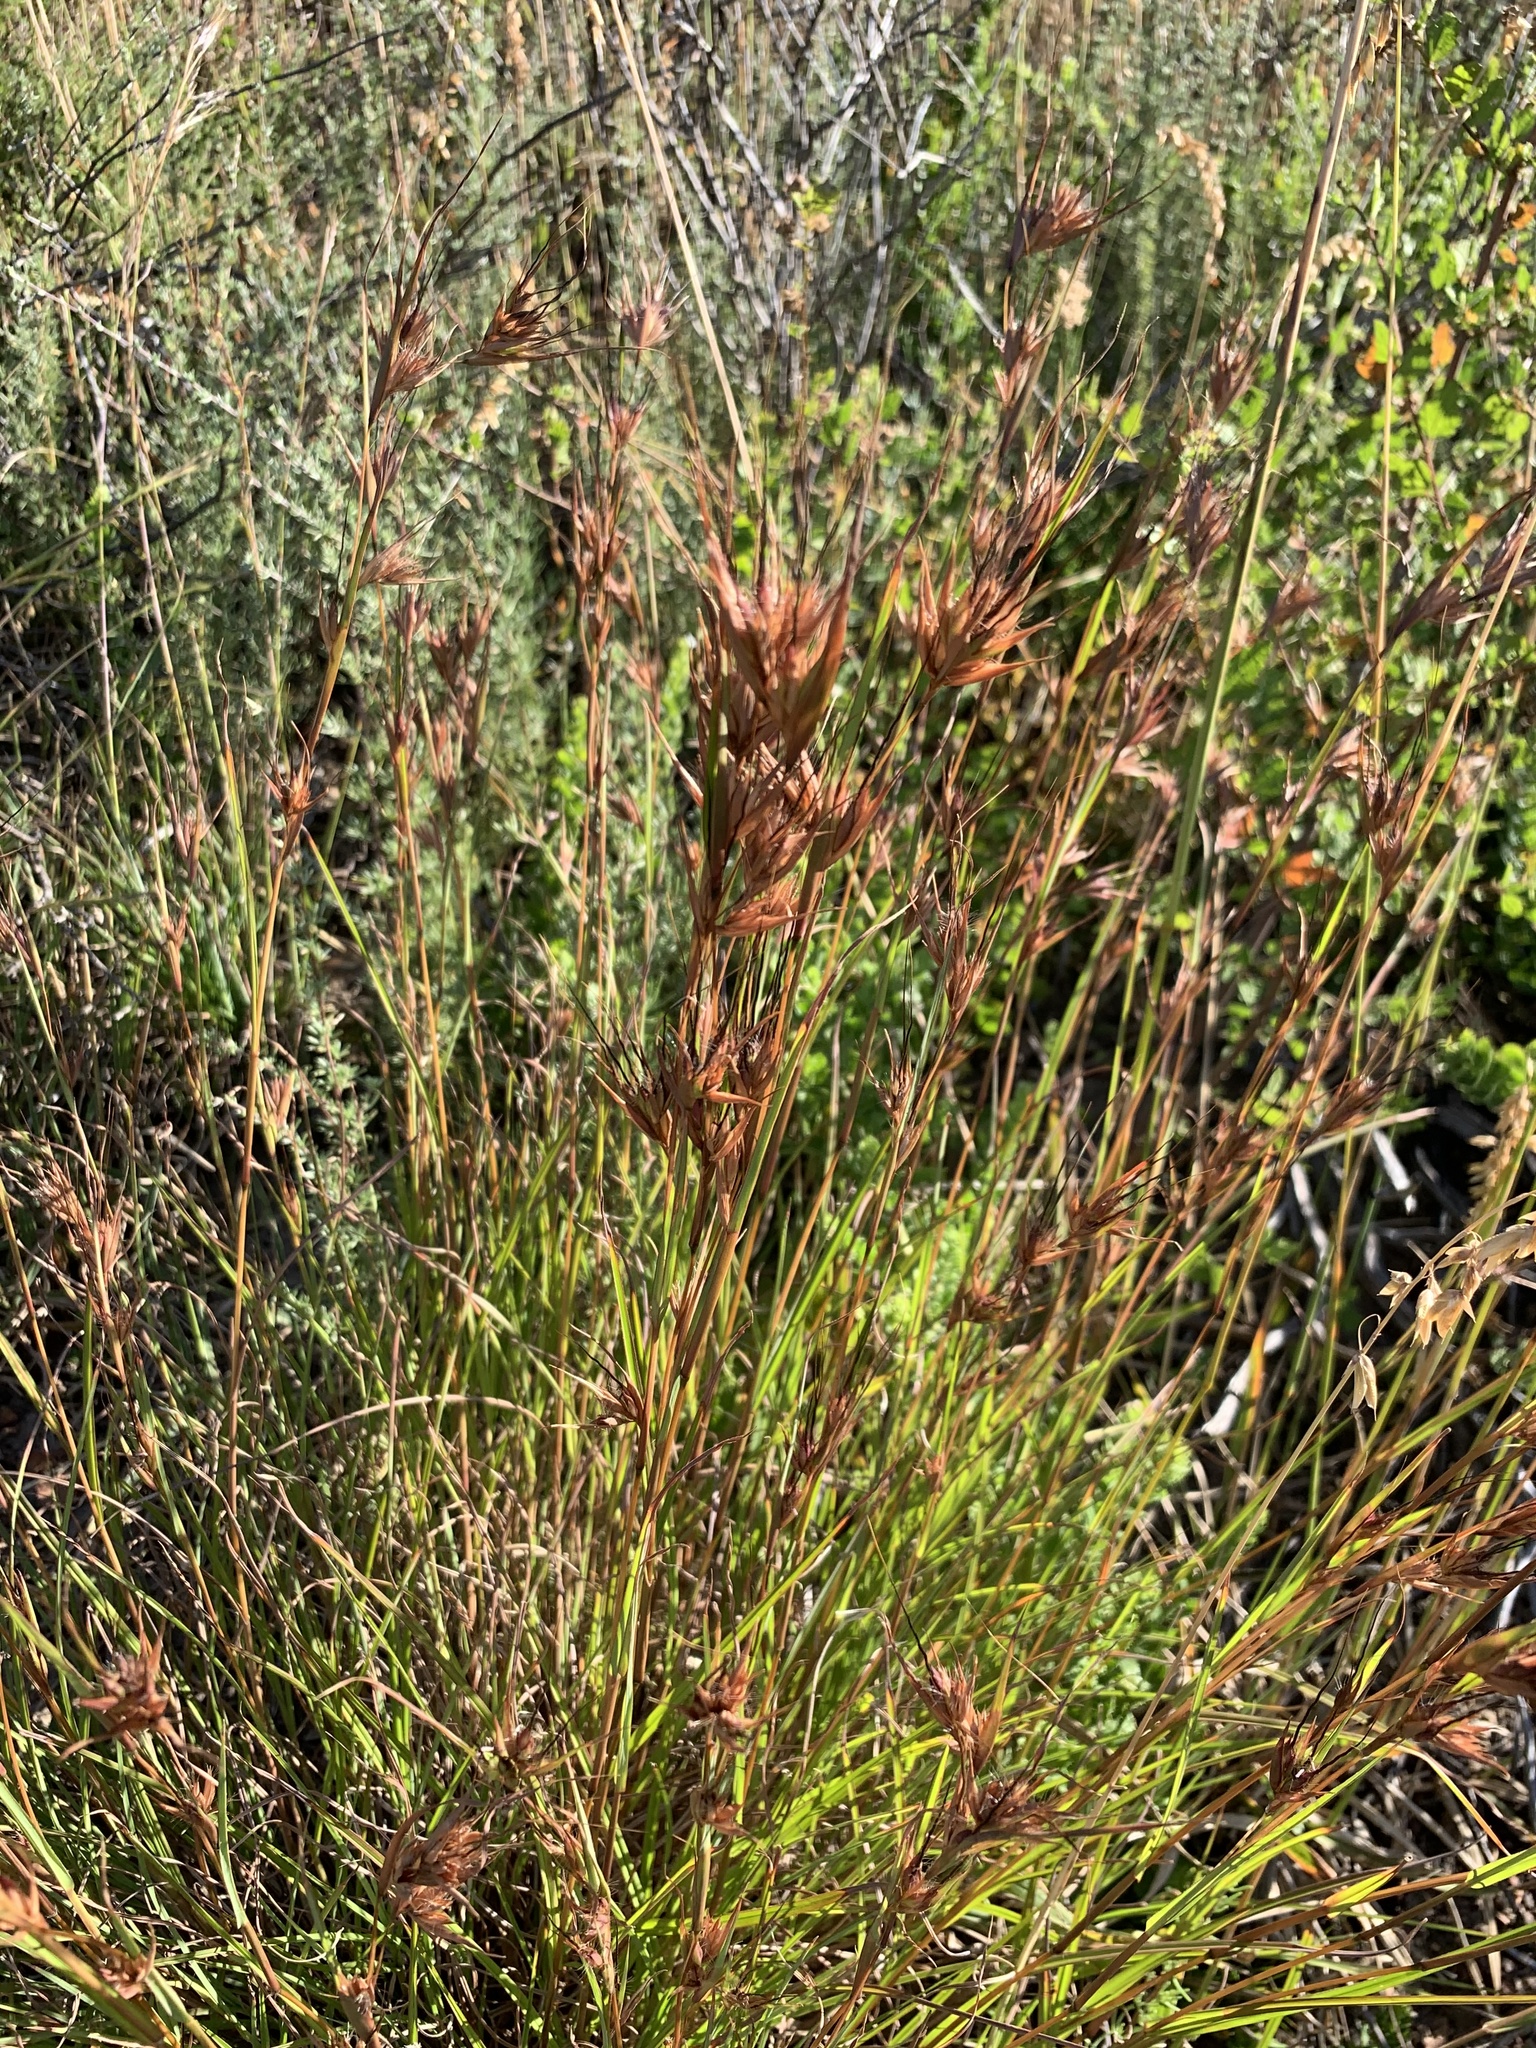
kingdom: Plantae
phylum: Tracheophyta
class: Liliopsida
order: Poales
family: Poaceae
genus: Themeda
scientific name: Themeda triandra
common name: Kangaroo grass
